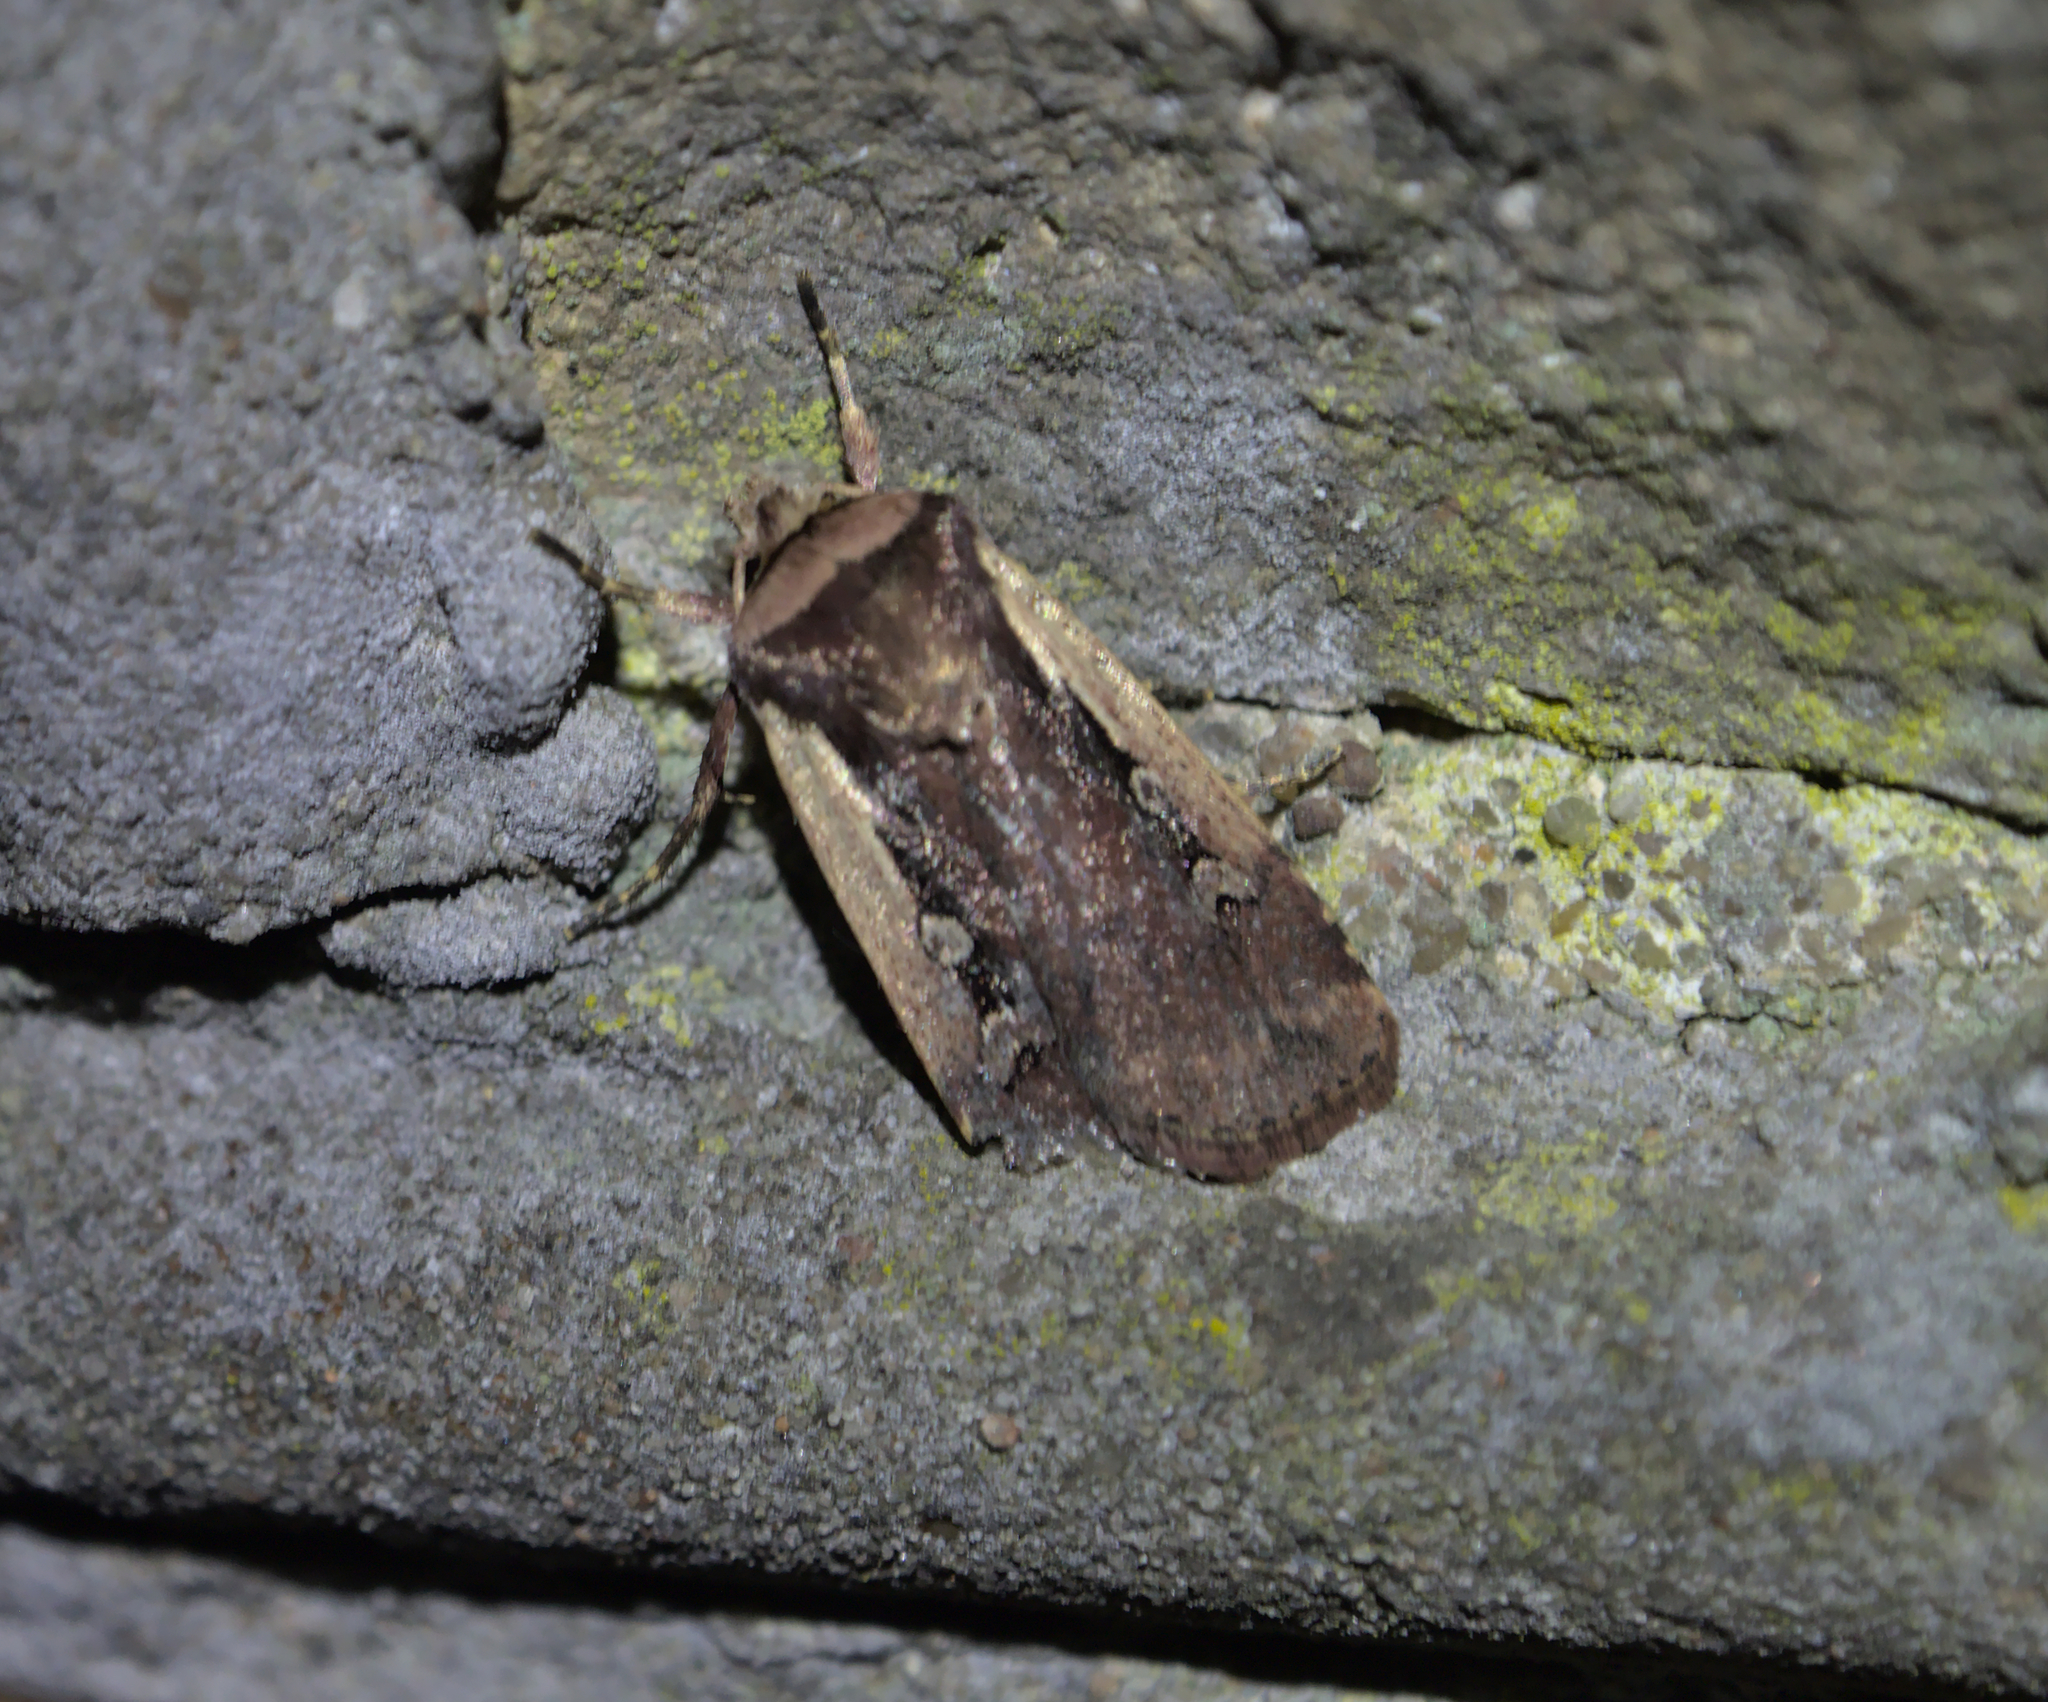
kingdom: Animalia
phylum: Arthropoda
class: Insecta
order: Lepidoptera
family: Noctuidae
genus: Ochropleura
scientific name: Ochropleura plecta
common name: Flame shoulder
